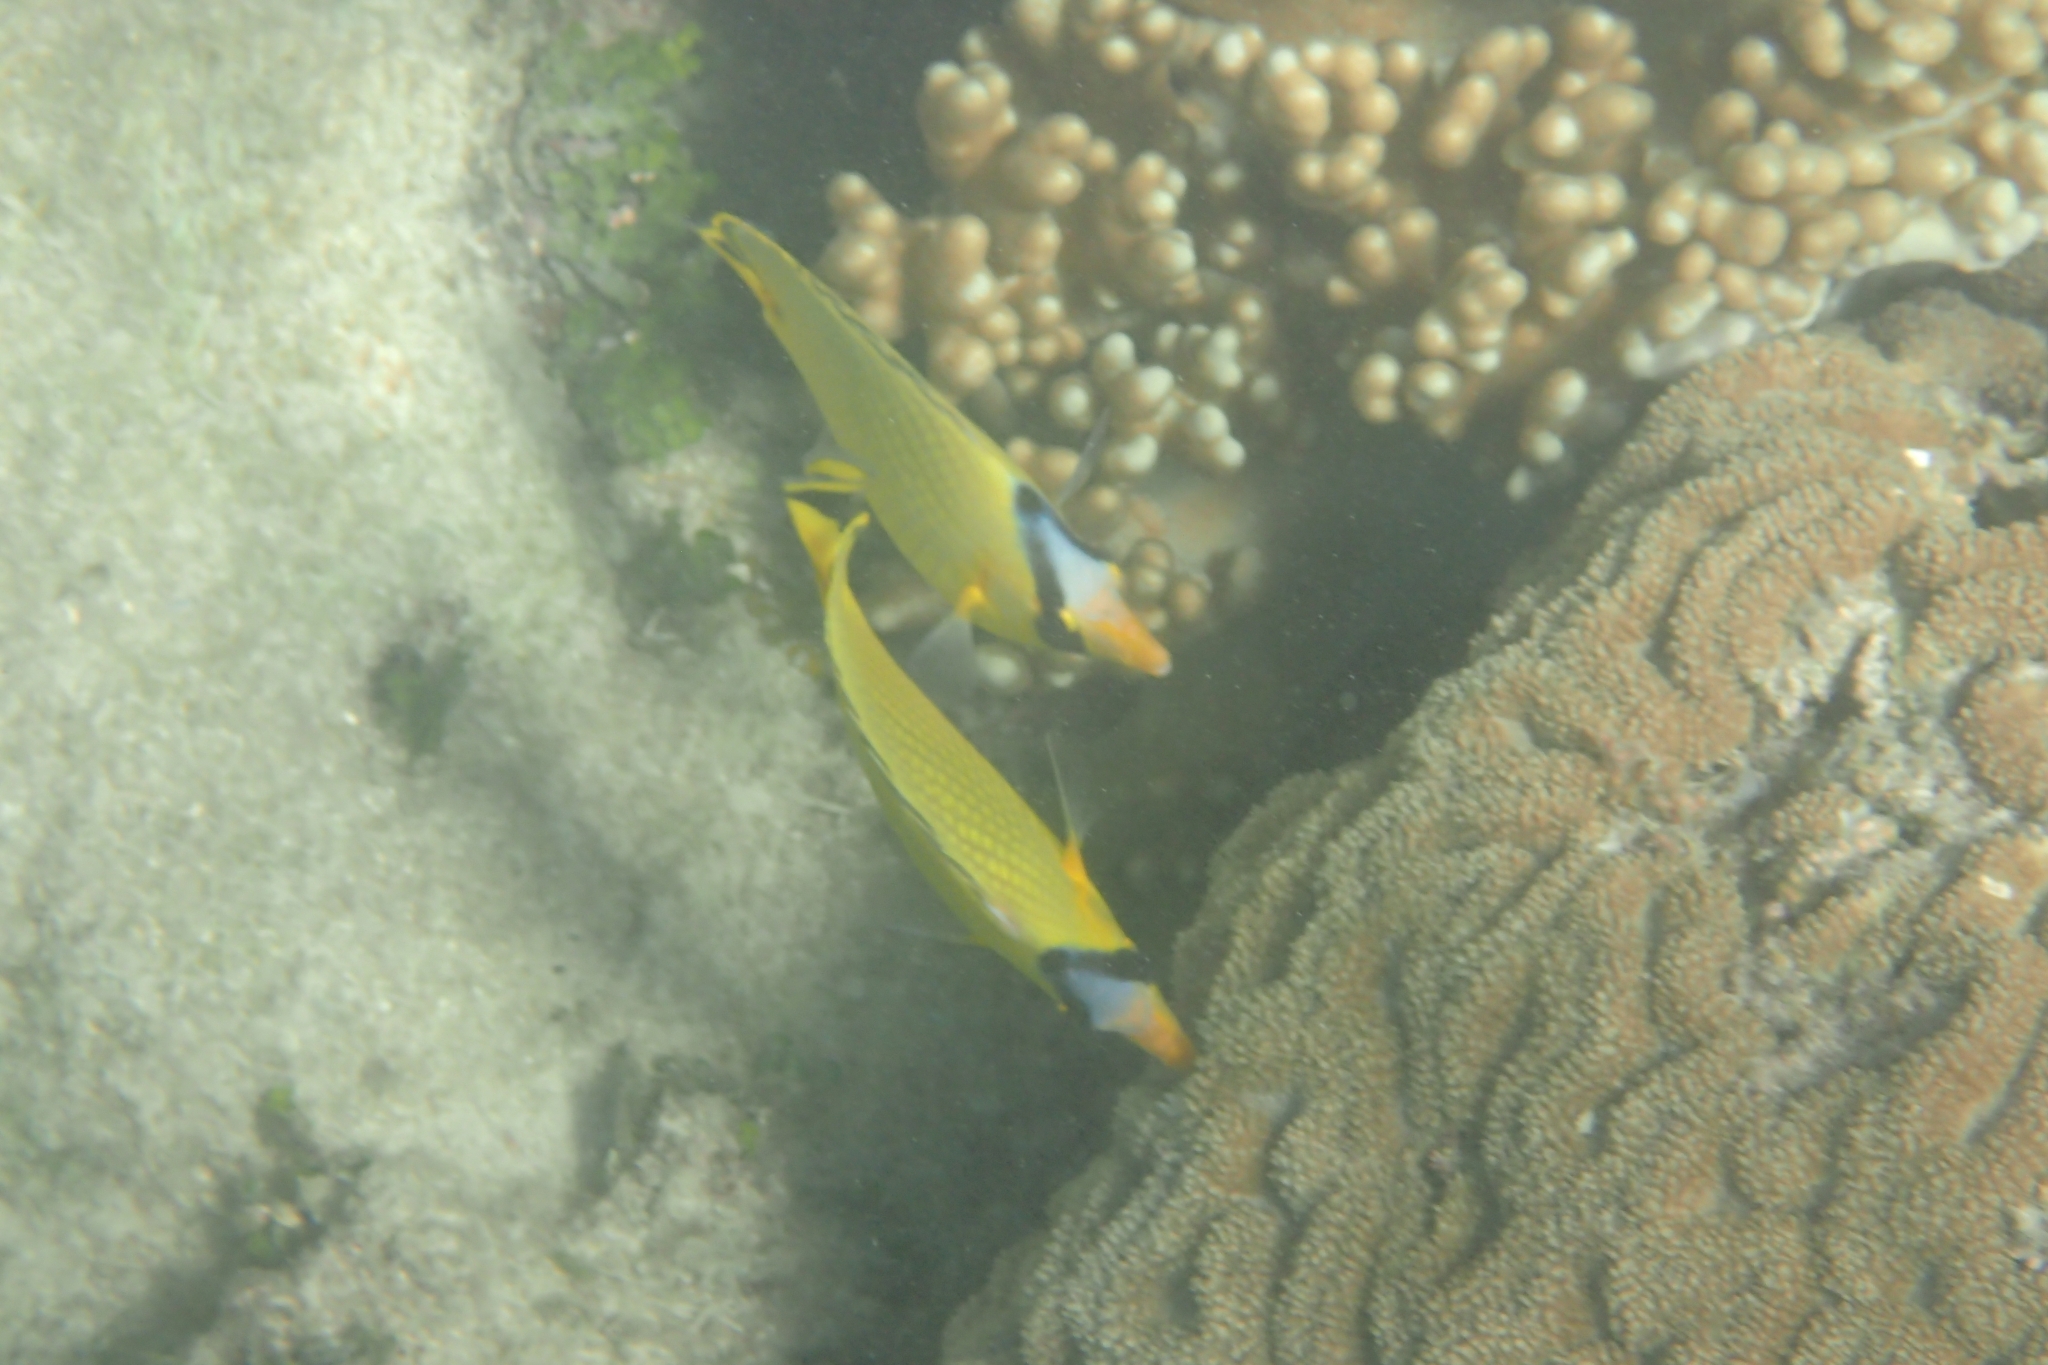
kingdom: Animalia
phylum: Chordata
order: Perciformes
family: Chaetodontidae
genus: Chaetodon
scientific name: Chaetodon rafflesii
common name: Latticed butterflyfish
